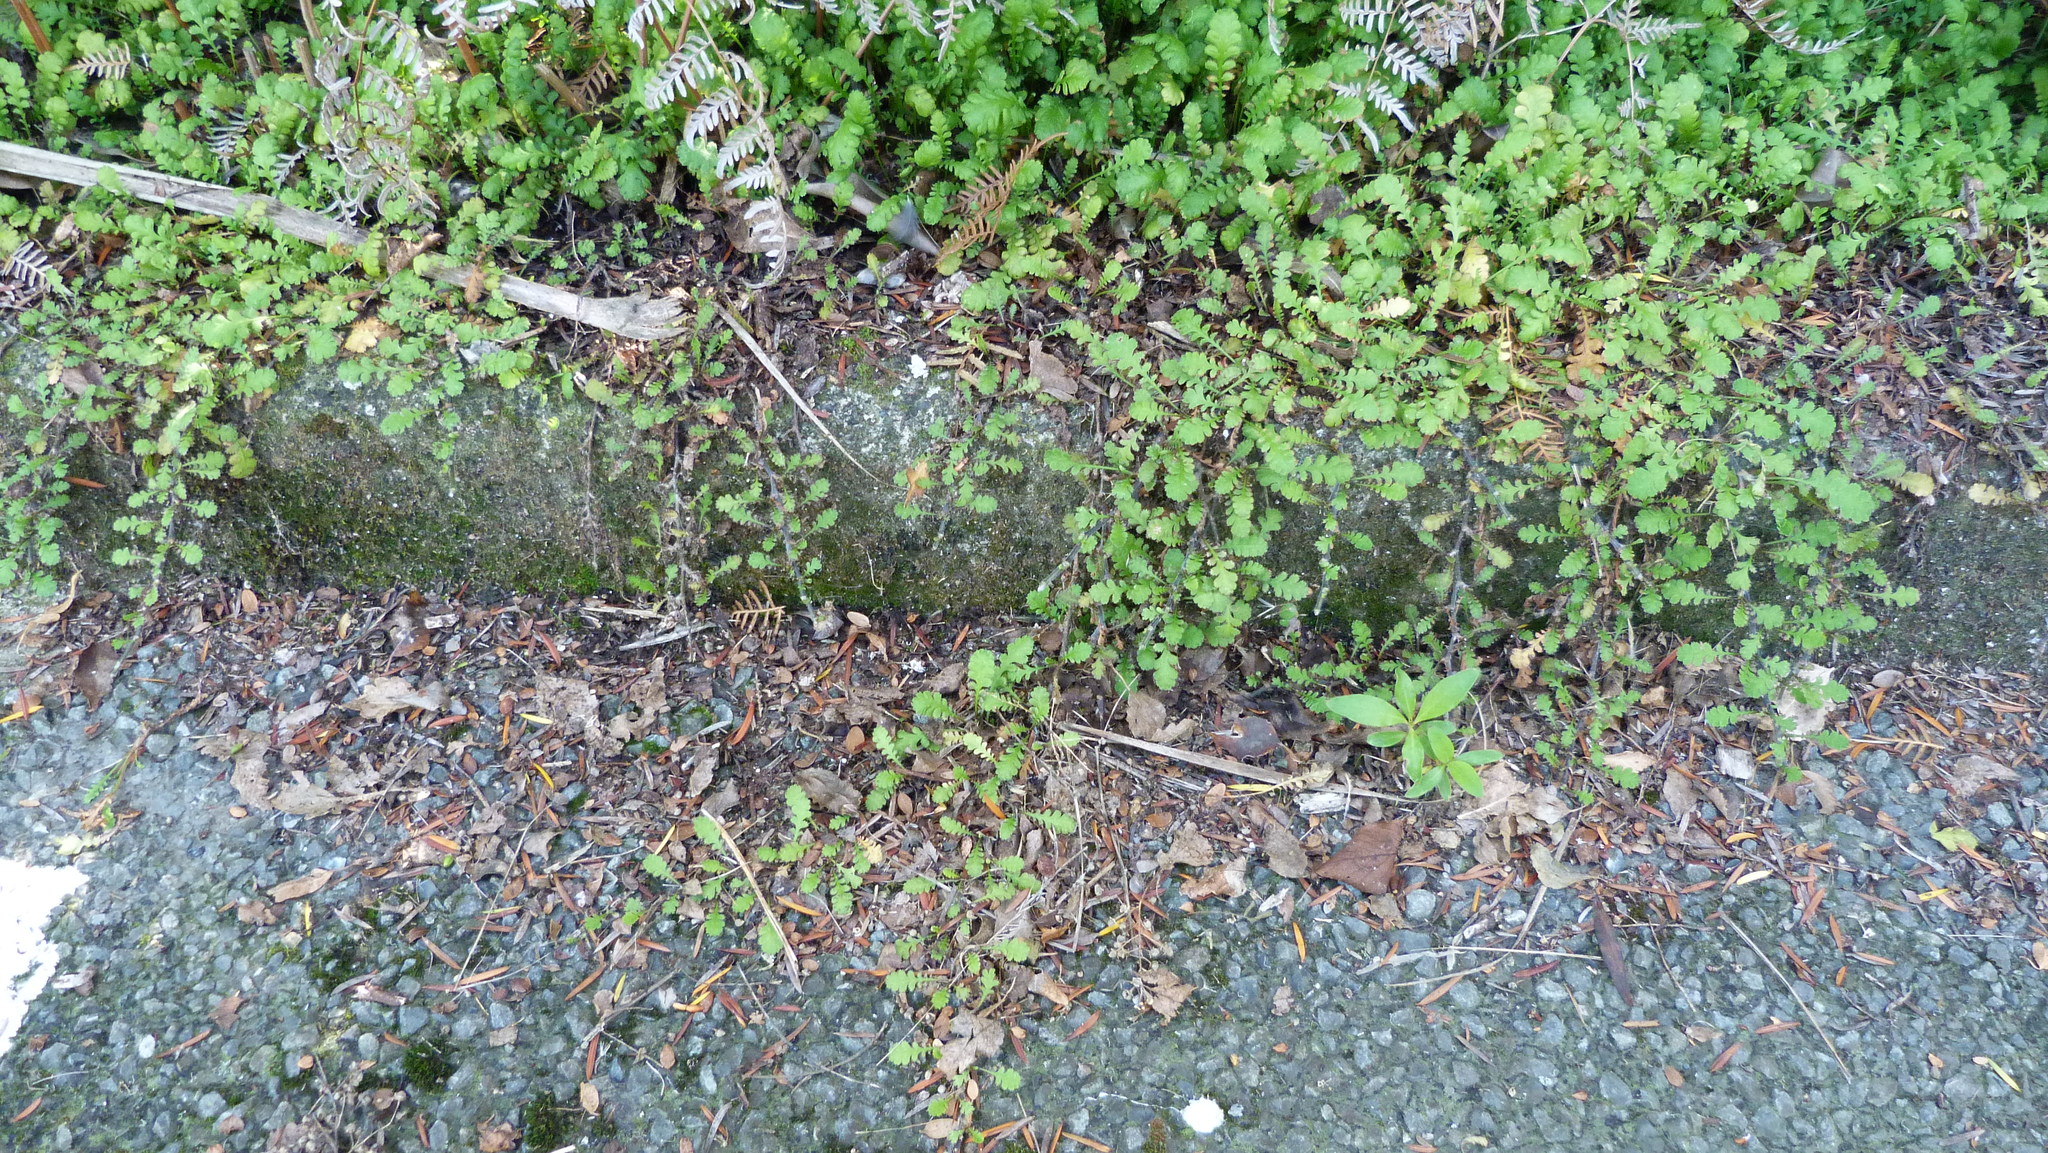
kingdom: Plantae
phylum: Tracheophyta
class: Magnoliopsida
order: Asterales
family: Asteraceae
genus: Leptinella
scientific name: Leptinella dioica
